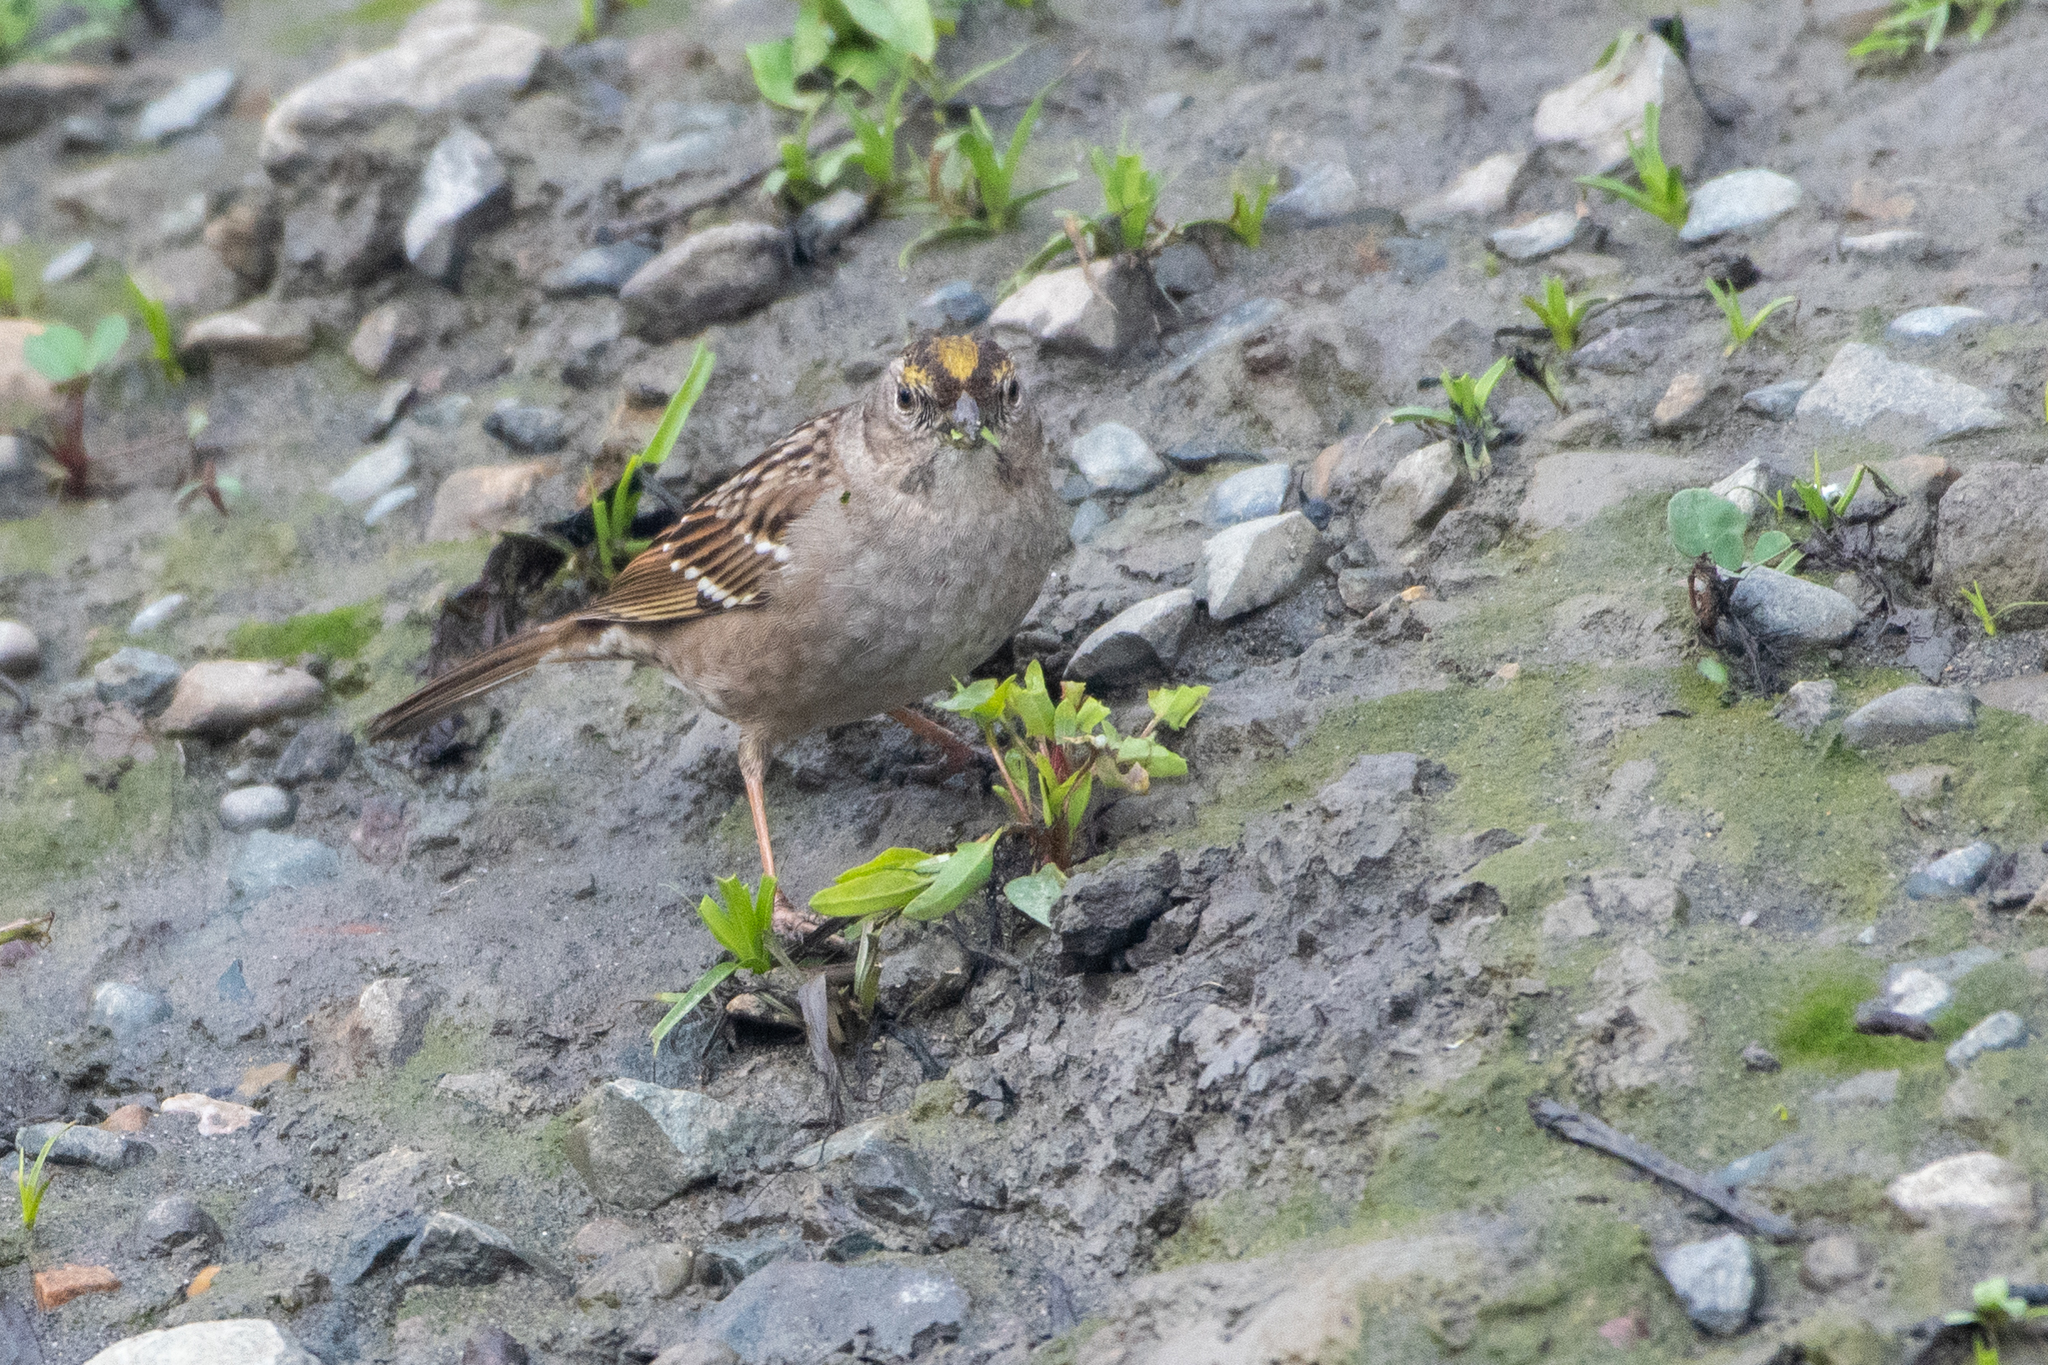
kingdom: Animalia
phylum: Chordata
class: Aves
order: Passeriformes
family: Passerellidae
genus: Zonotrichia
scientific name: Zonotrichia atricapilla
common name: Golden-crowned sparrow
